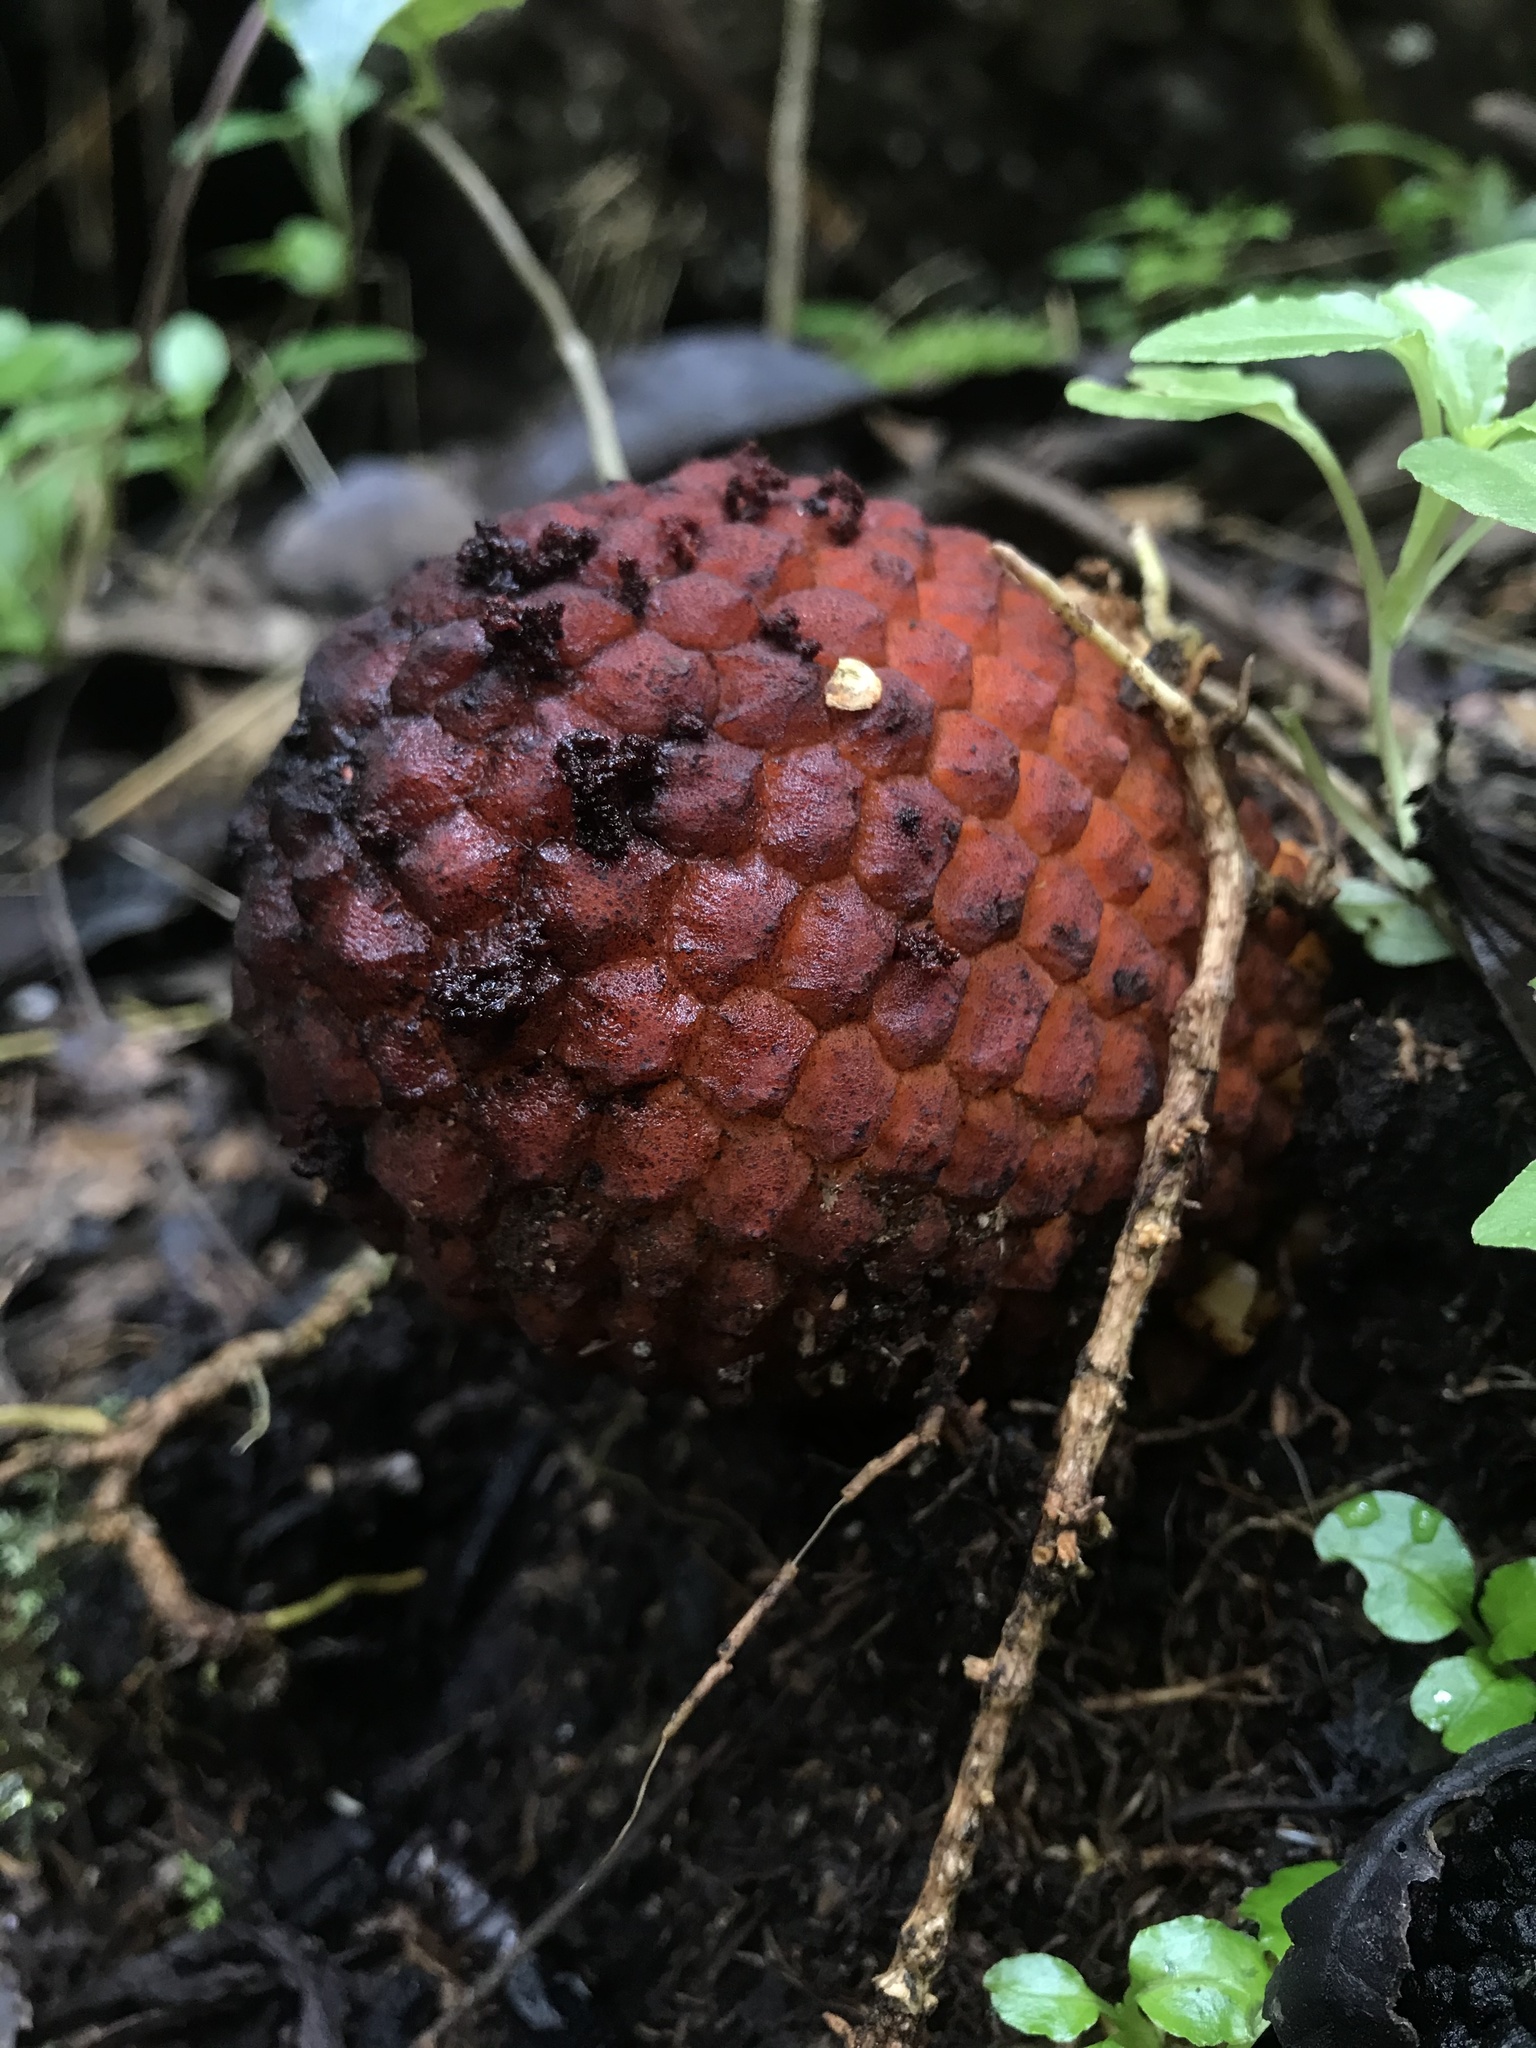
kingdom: Plantae
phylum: Tracheophyta
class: Magnoliopsida
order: Santalales
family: Balanophoraceae
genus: Corynaea
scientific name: Corynaea crassa
